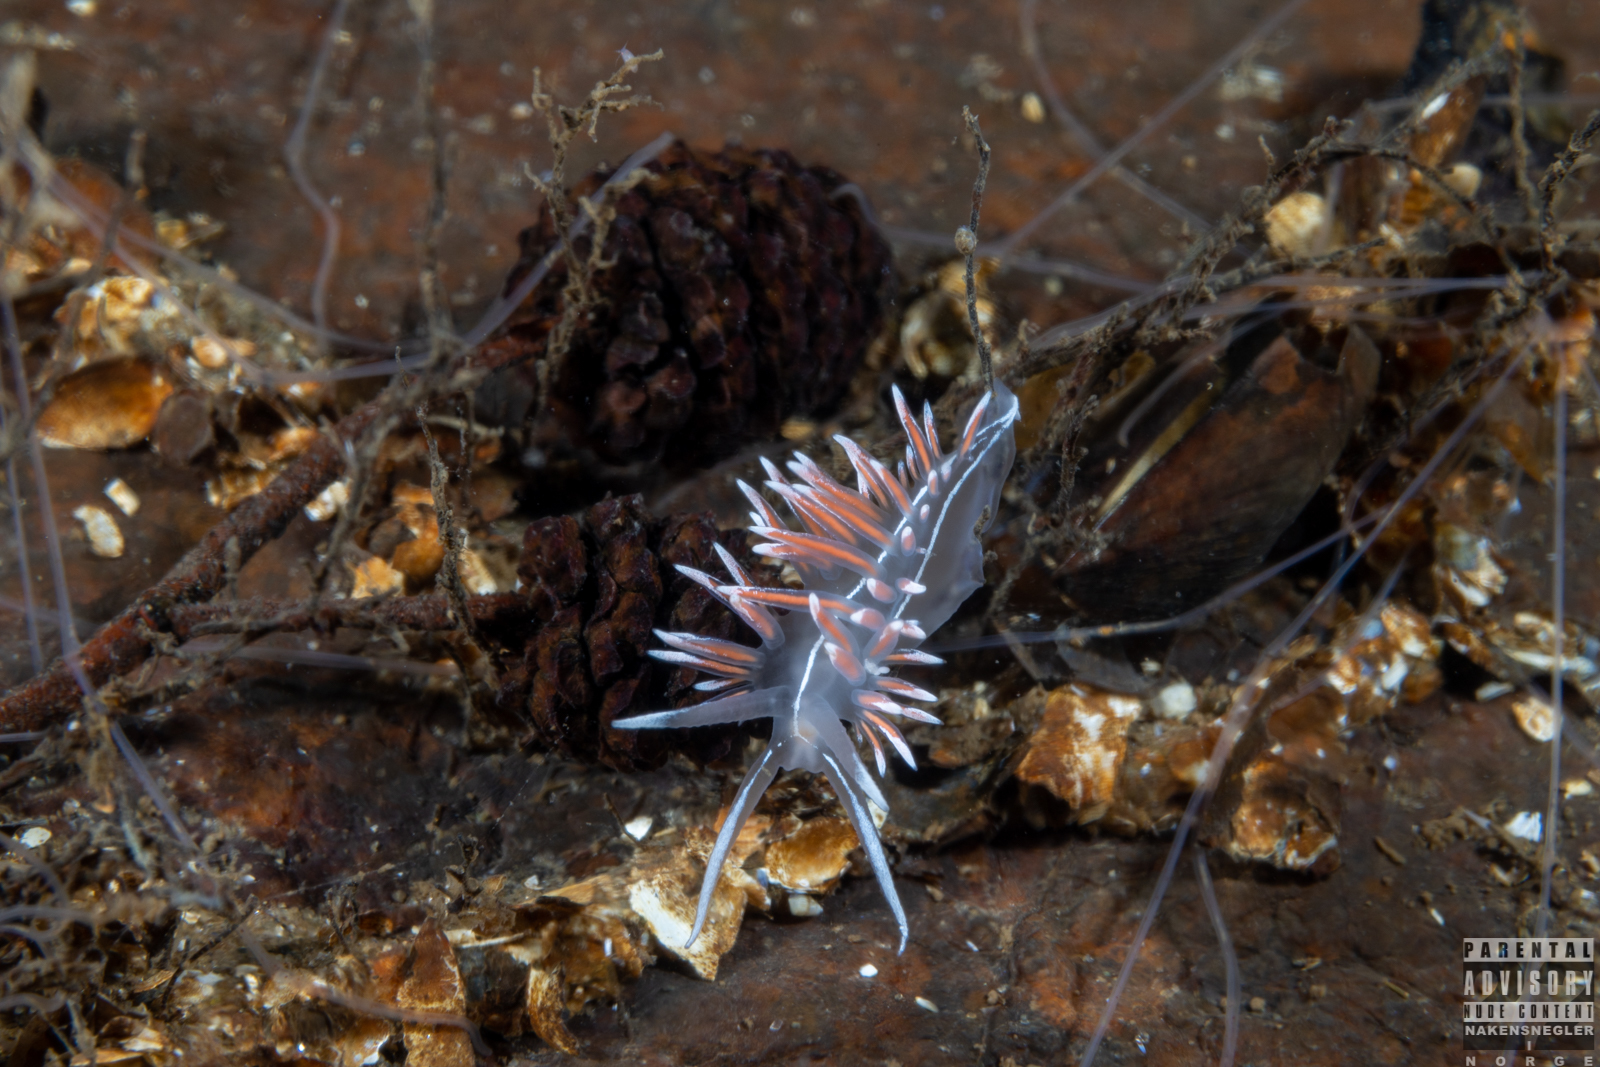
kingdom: Animalia
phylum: Mollusca
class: Gastropoda
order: Nudibranchia
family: Coryphellidae
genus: Coryphella
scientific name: Coryphella lineata
